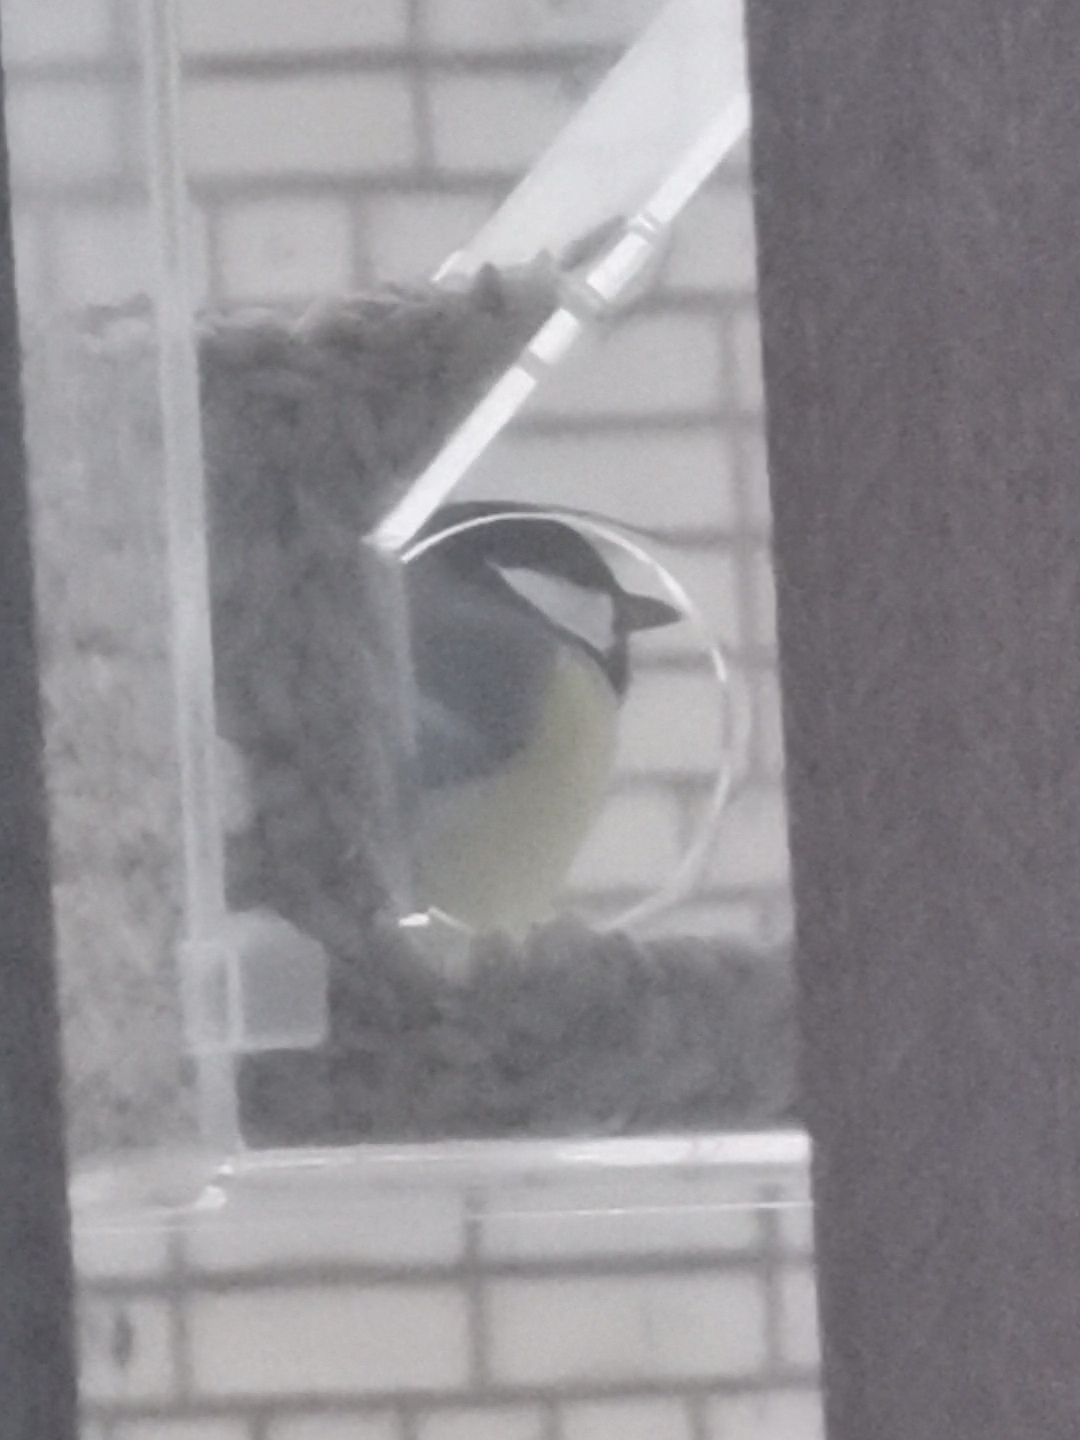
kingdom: Animalia
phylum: Chordata
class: Aves
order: Passeriformes
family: Paridae
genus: Parus
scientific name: Parus major
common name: Great tit
